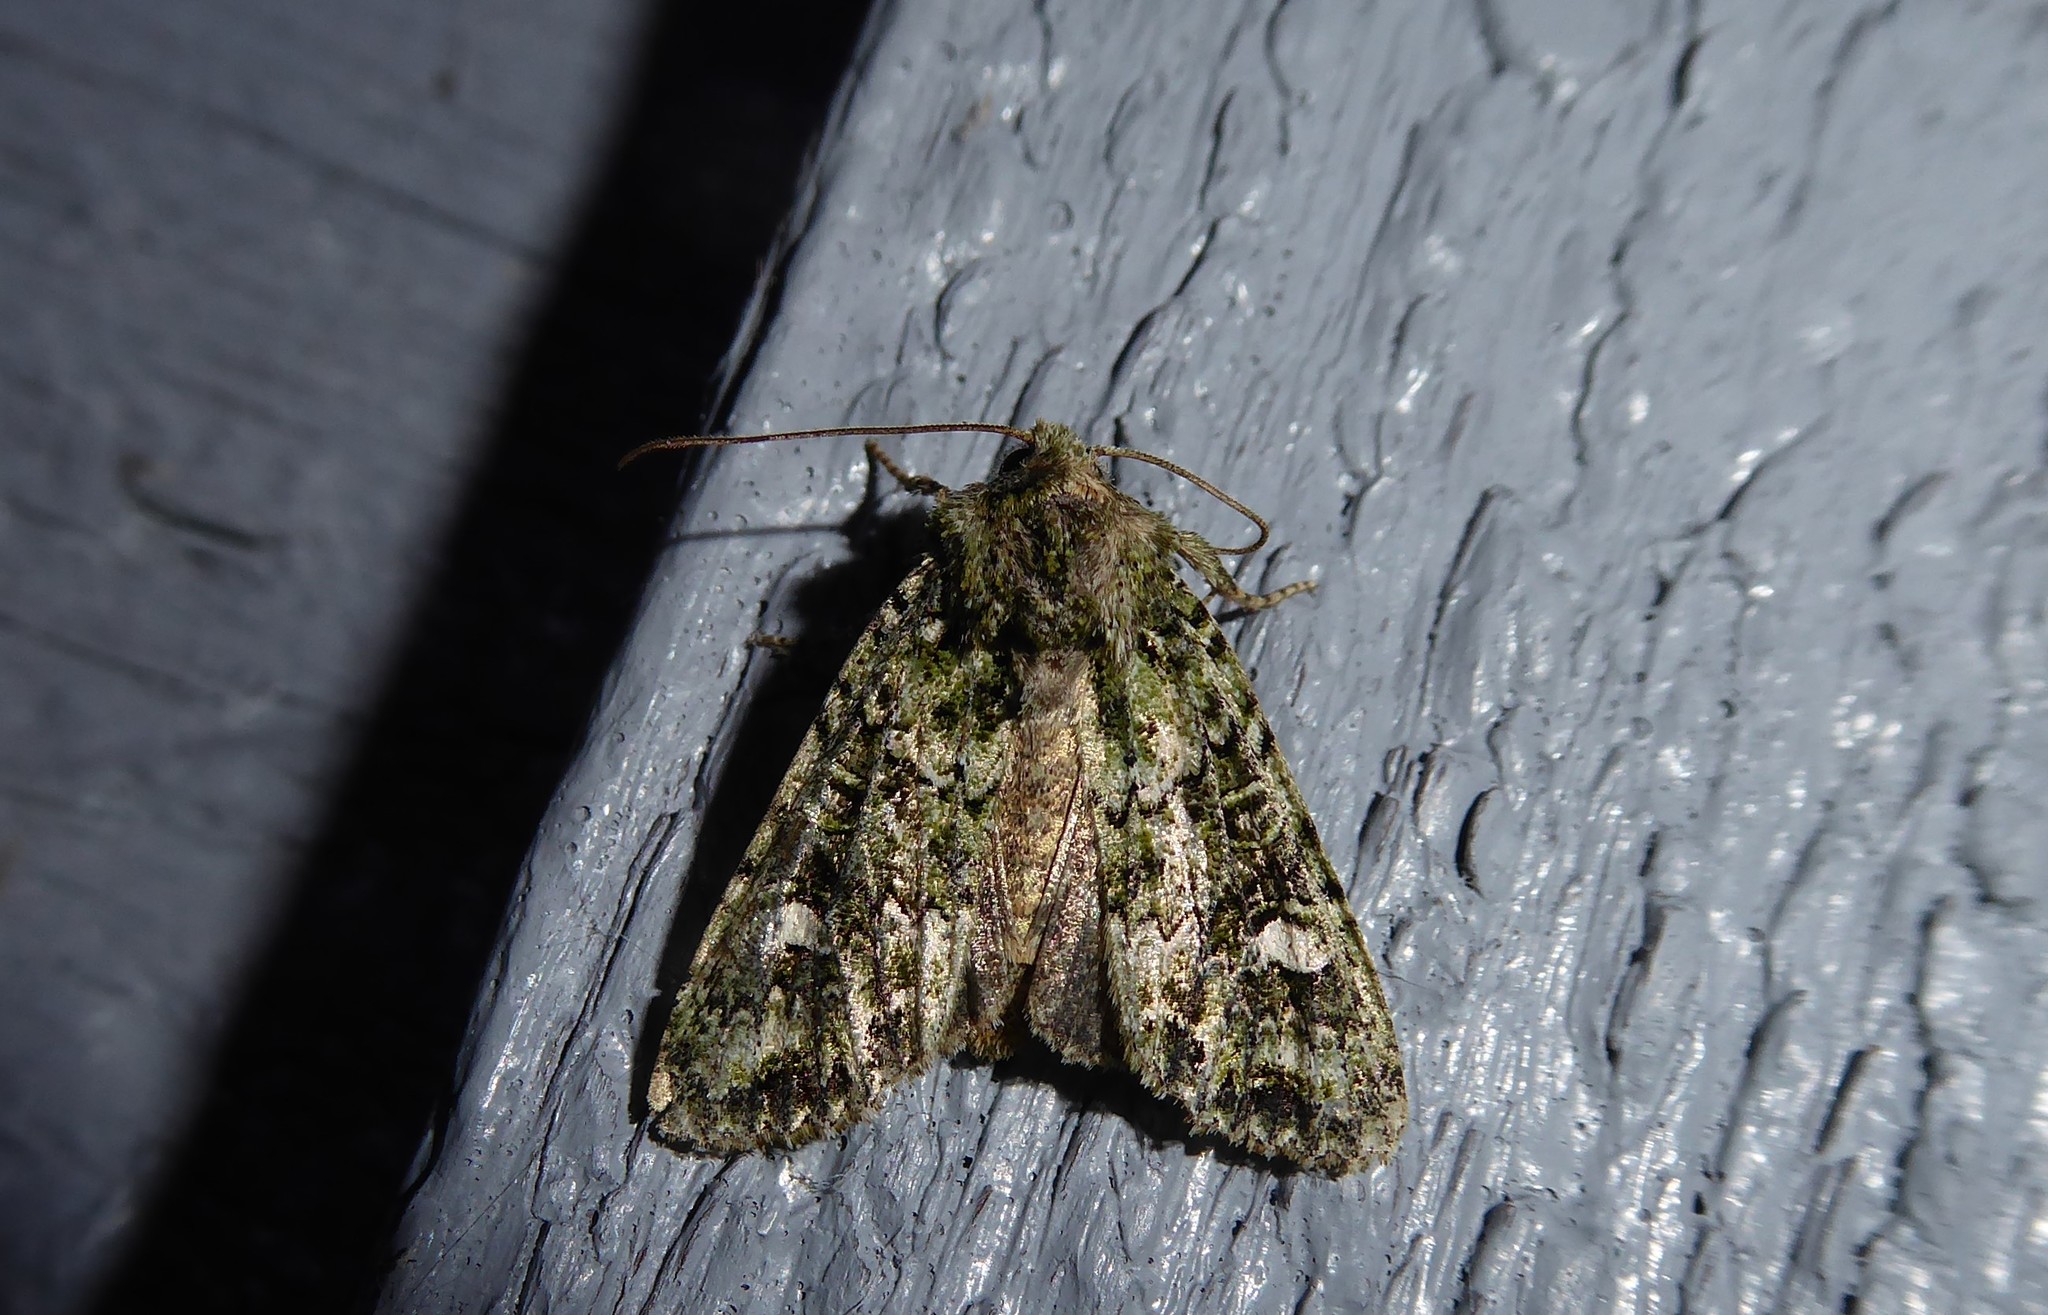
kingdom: Animalia
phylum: Arthropoda
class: Insecta
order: Lepidoptera
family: Noctuidae
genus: Ichneutica
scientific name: Ichneutica
